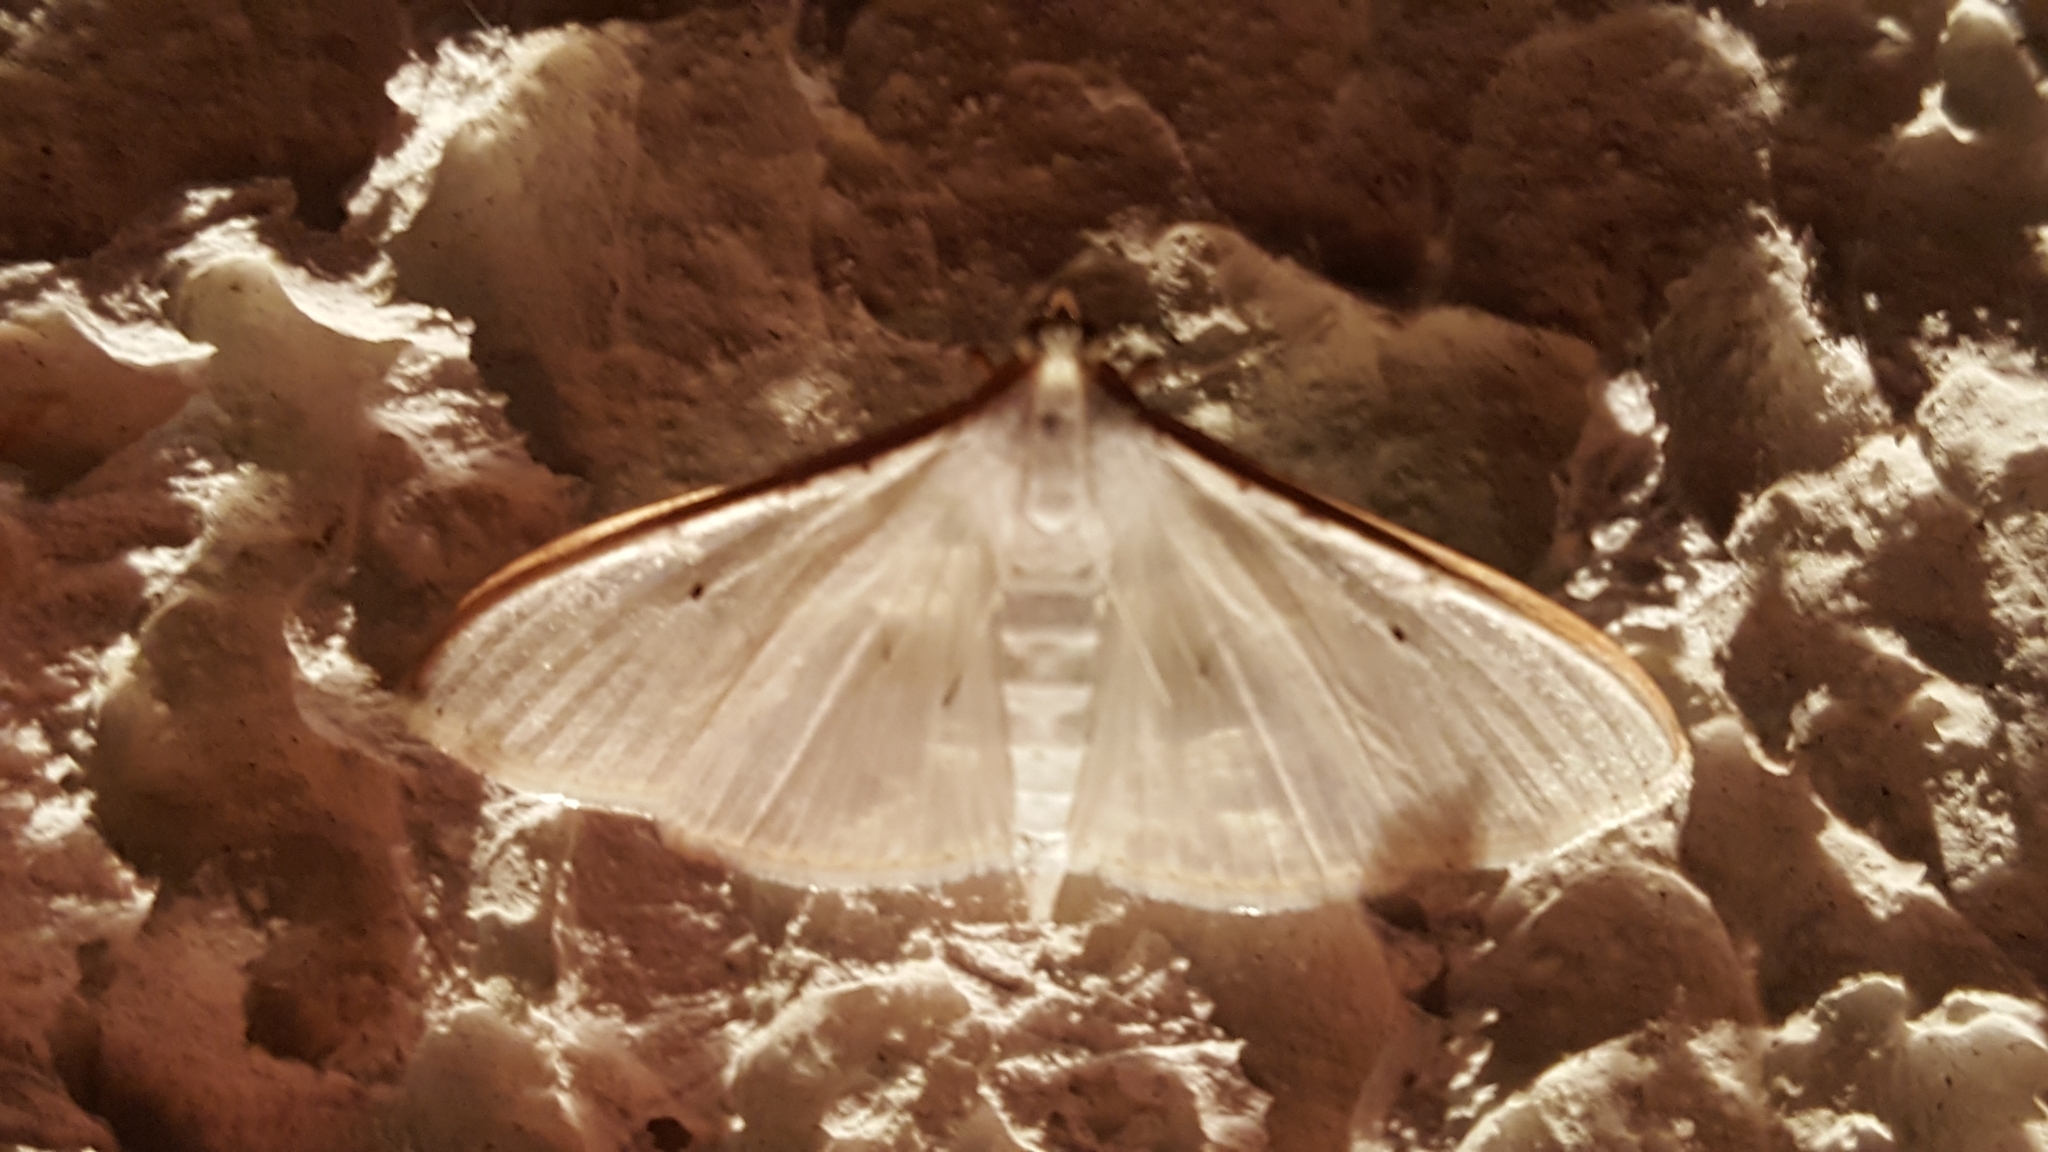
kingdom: Animalia
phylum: Arthropoda
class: Insecta
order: Lepidoptera
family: Crambidae
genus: Palpita
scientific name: Palpita vitrealis
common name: Olive-tree pearl
